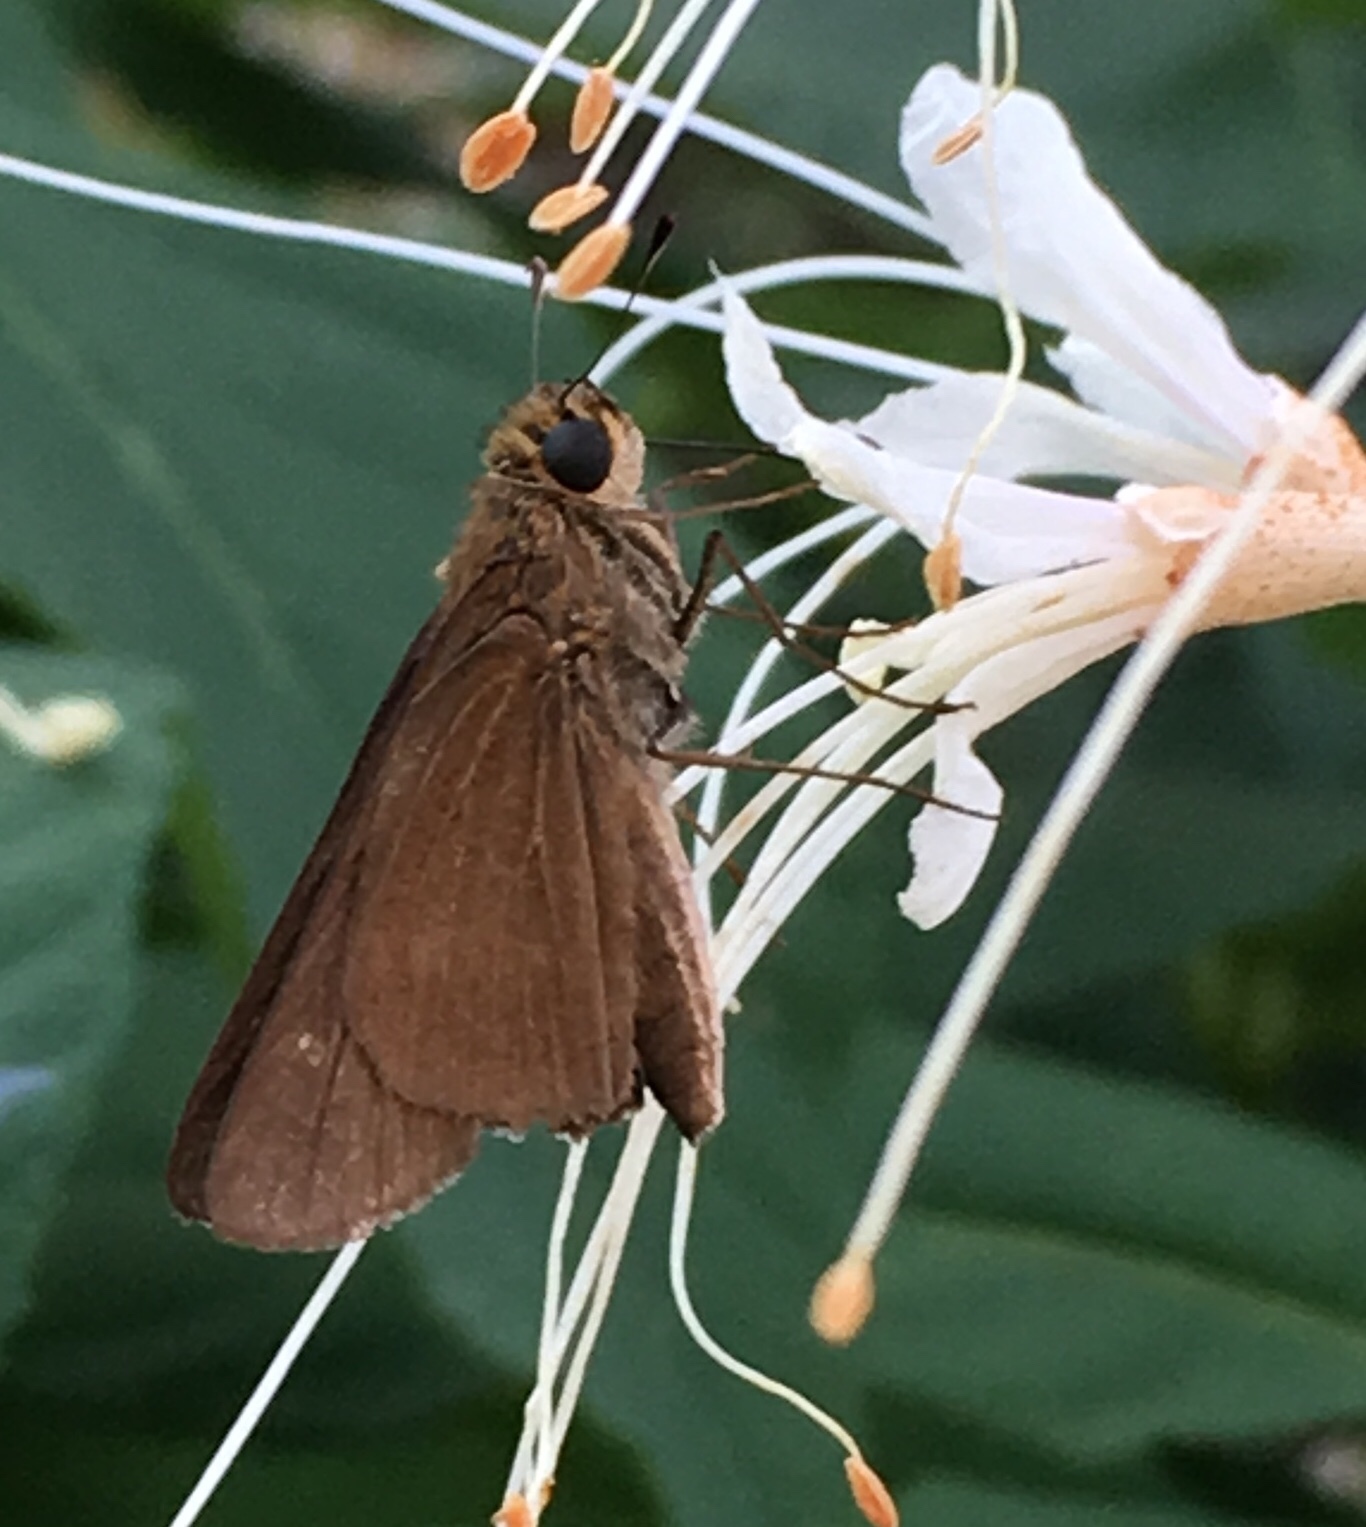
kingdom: Animalia
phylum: Arthropoda
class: Insecta
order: Lepidoptera
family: Hesperiidae
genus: Panoquina
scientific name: Panoquina ocola
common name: Ocola skipper
